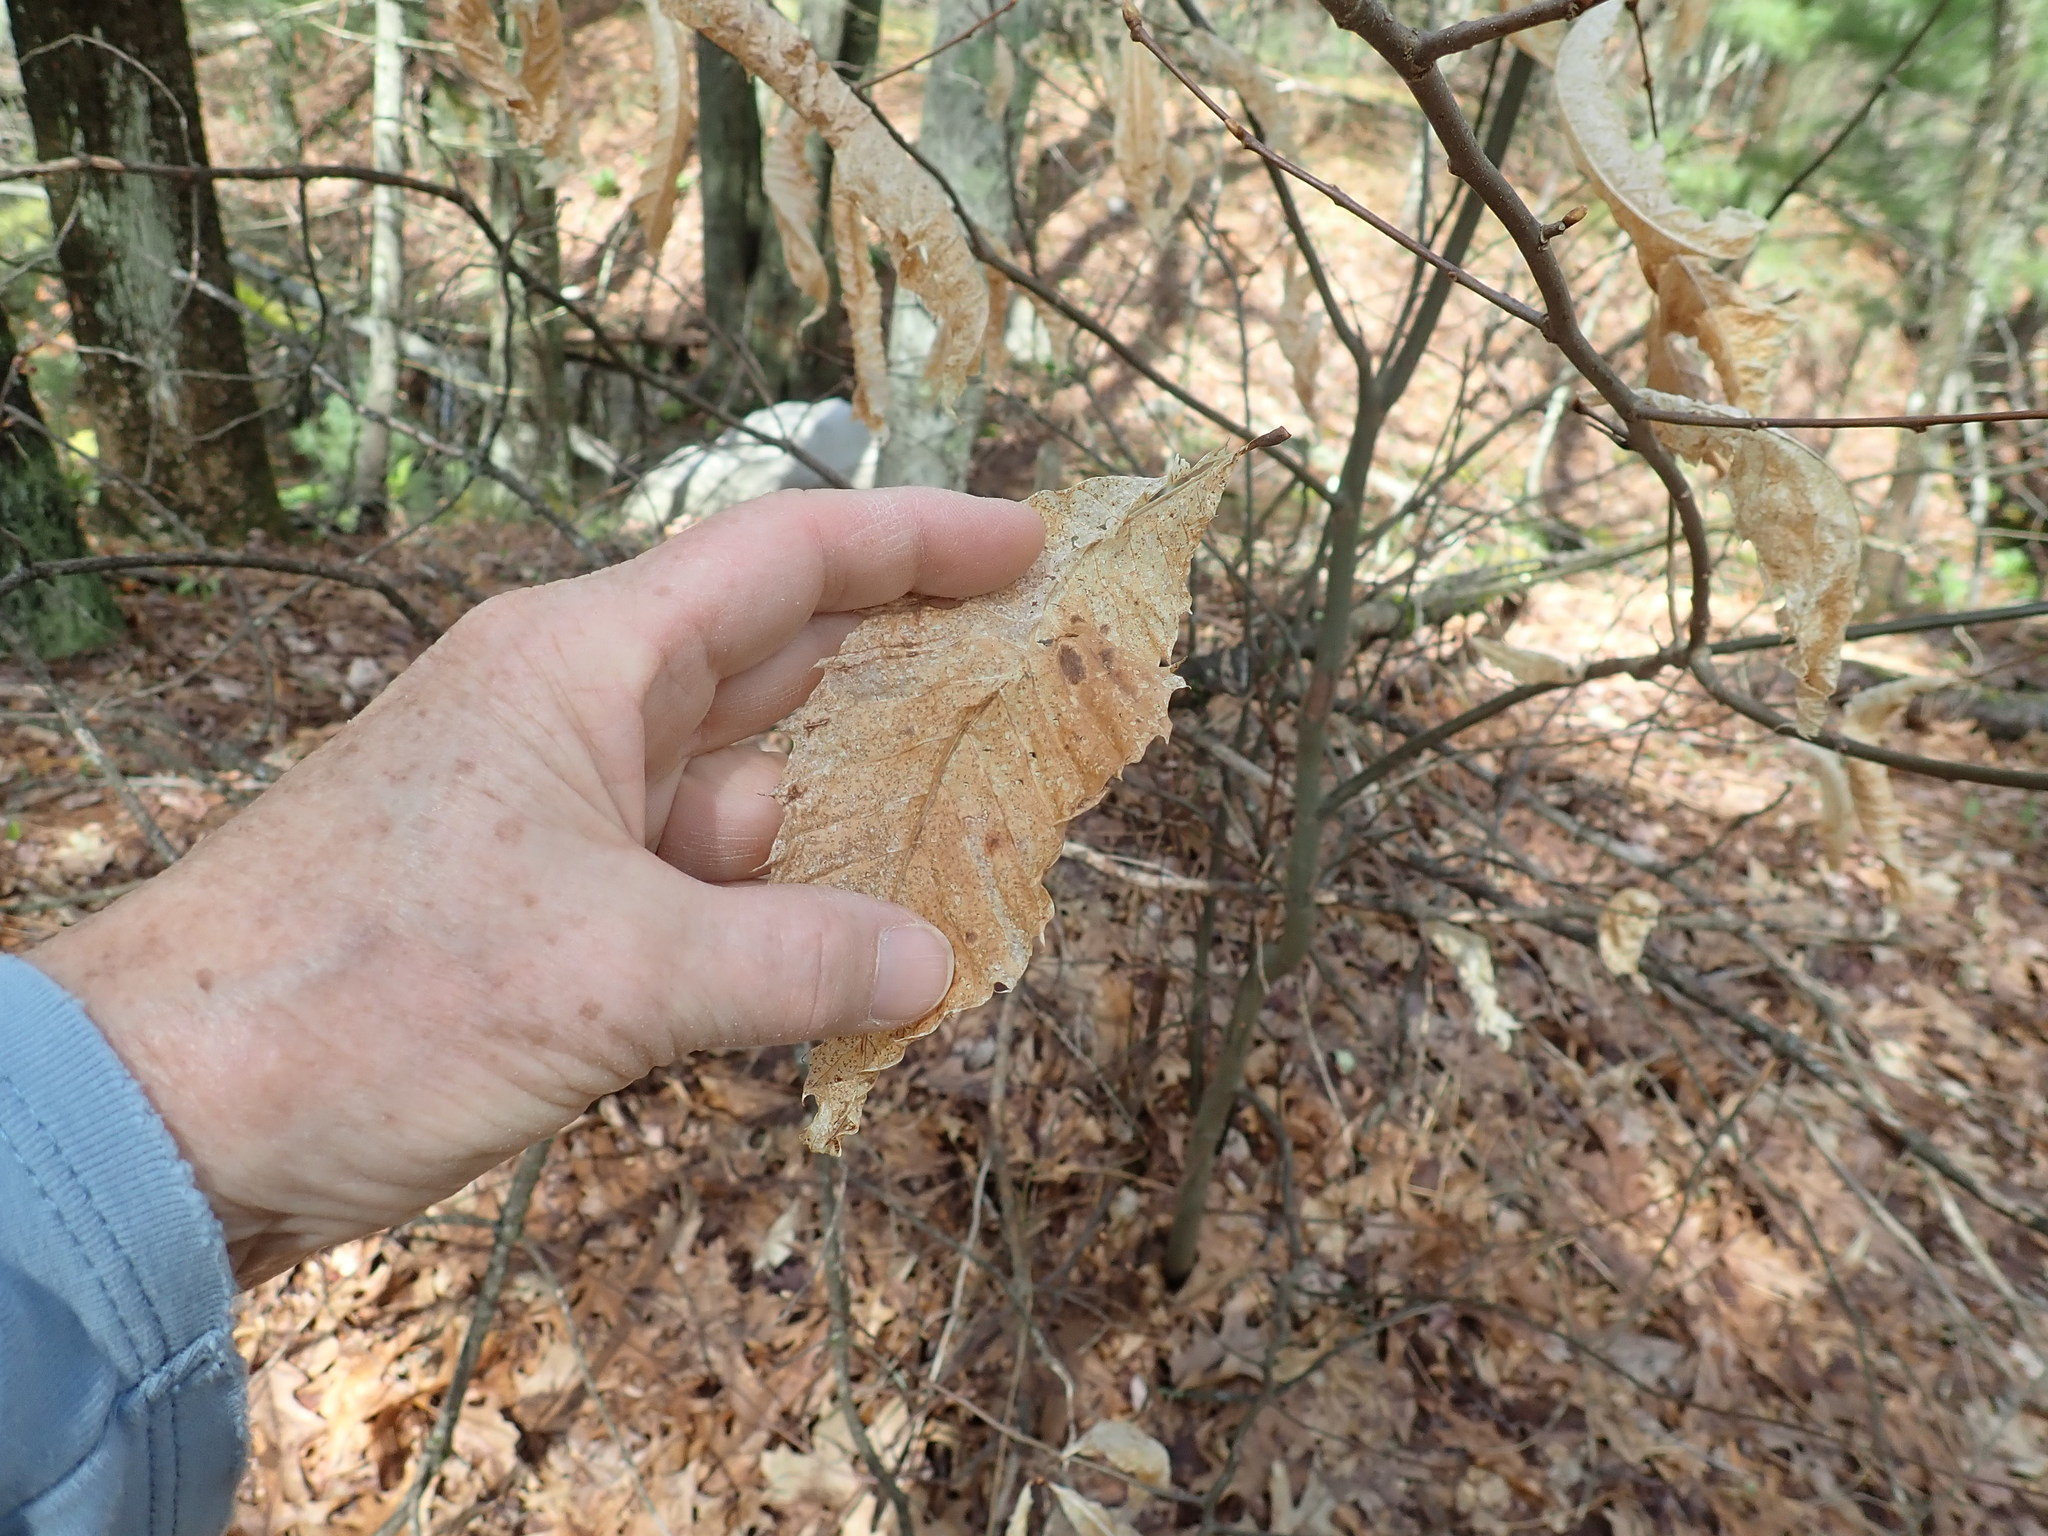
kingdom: Plantae
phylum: Tracheophyta
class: Magnoliopsida
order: Fagales
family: Fagaceae
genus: Castanea
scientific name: Castanea dentata
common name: American chestnut
